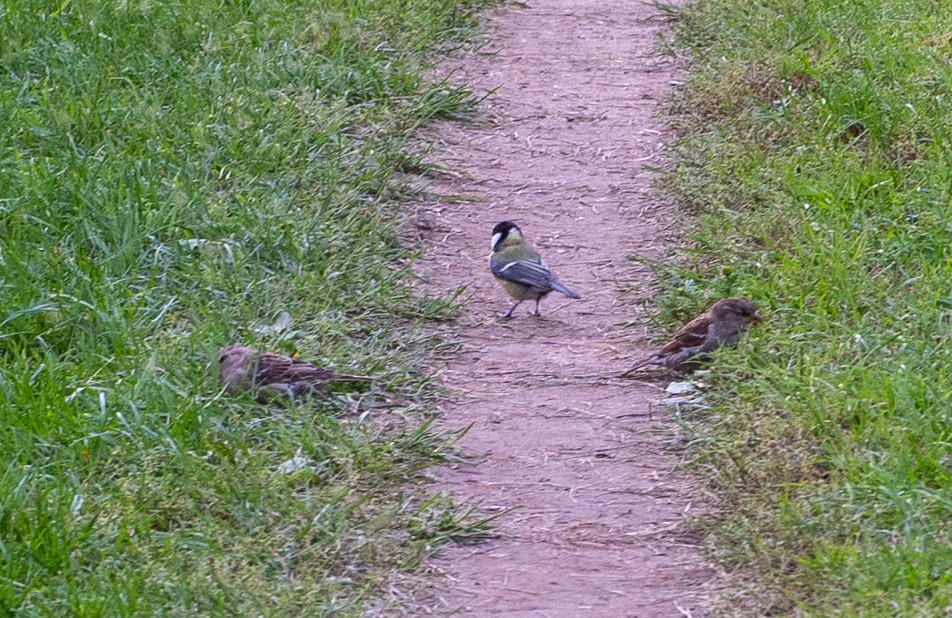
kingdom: Animalia
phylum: Chordata
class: Aves
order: Passeriformes
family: Paridae
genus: Parus
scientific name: Parus major
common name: Great tit
